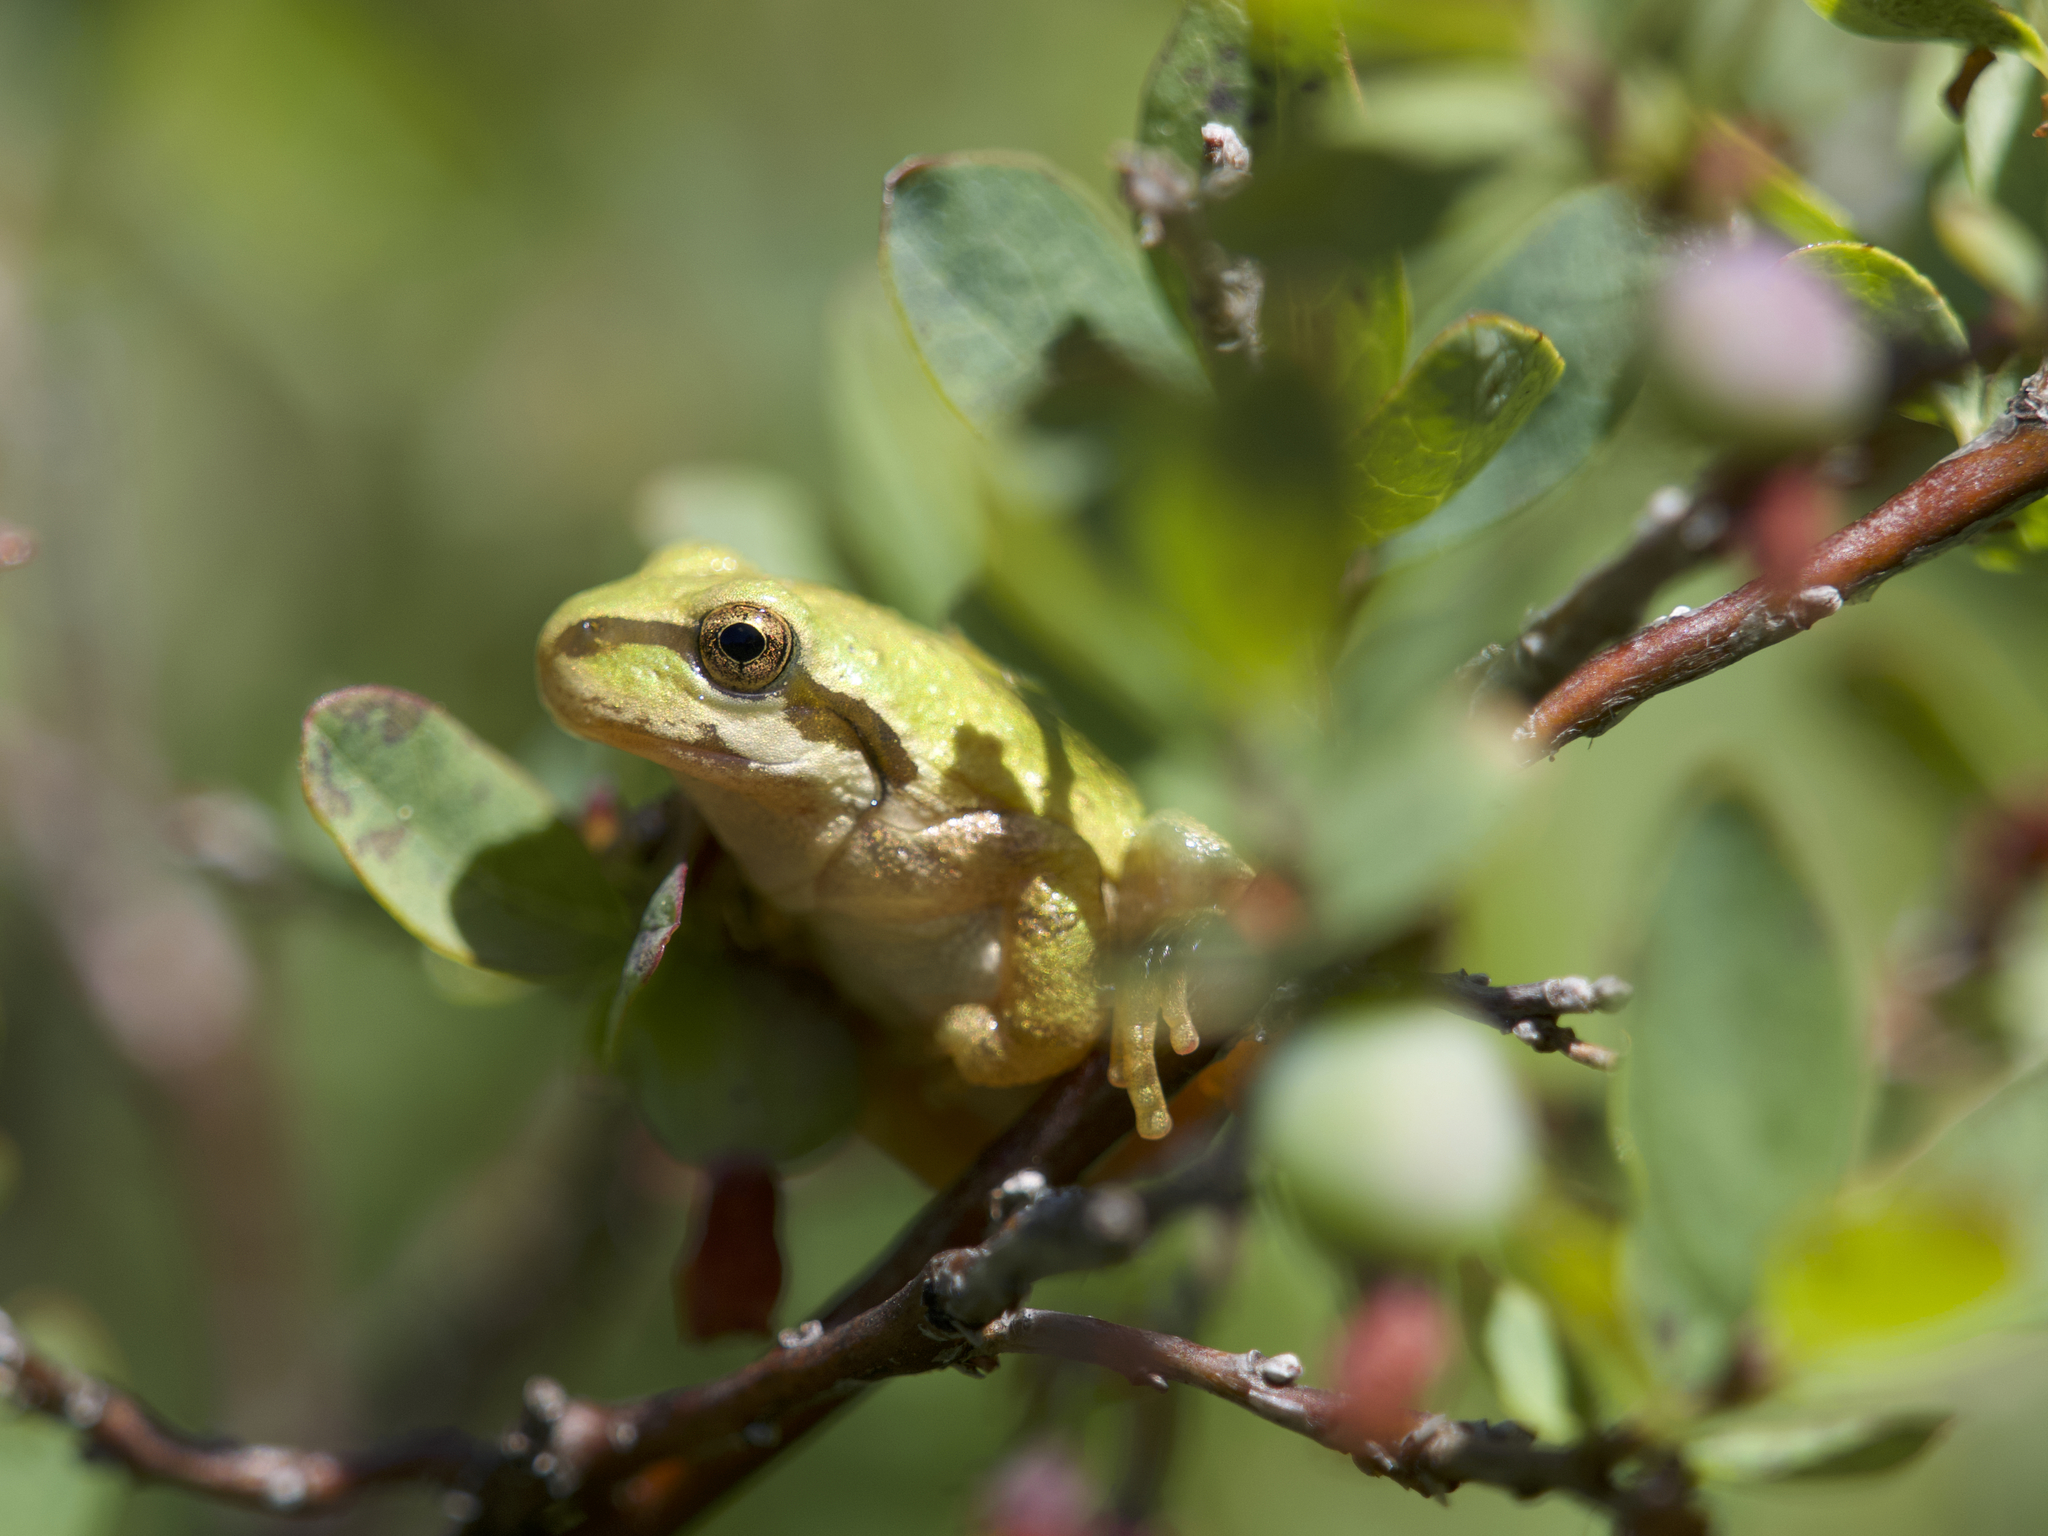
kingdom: Animalia
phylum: Chordata
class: Amphibia
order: Anura
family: Hylidae
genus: Pseudacris
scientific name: Pseudacris regilla
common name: Pacific chorus frog
